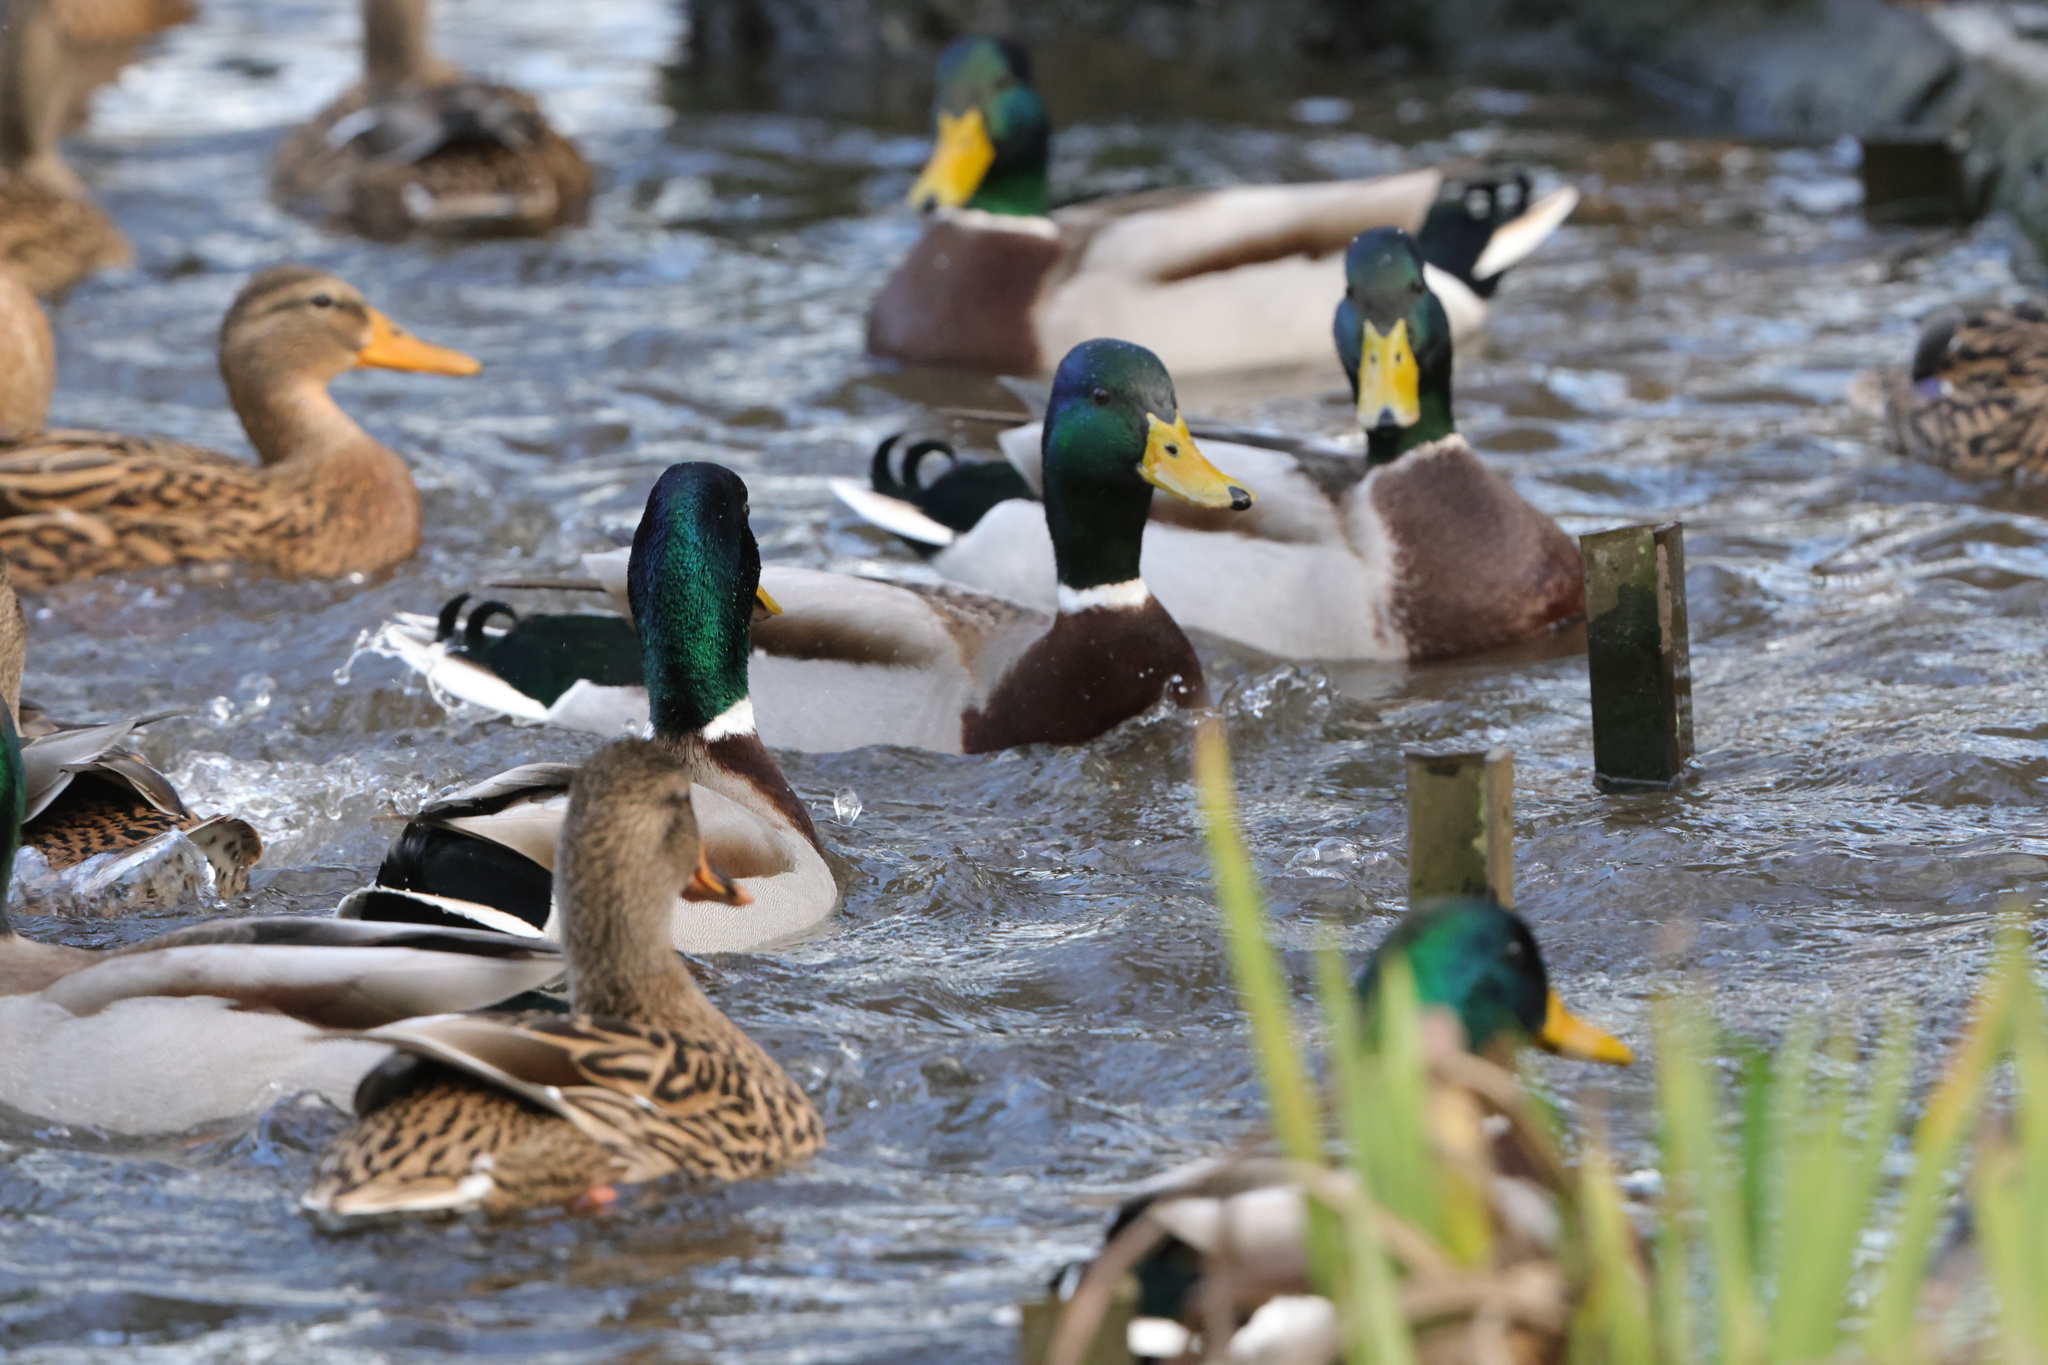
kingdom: Animalia
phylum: Chordata
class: Aves
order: Anseriformes
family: Anatidae
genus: Anas
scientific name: Anas platyrhynchos
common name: Mallard
